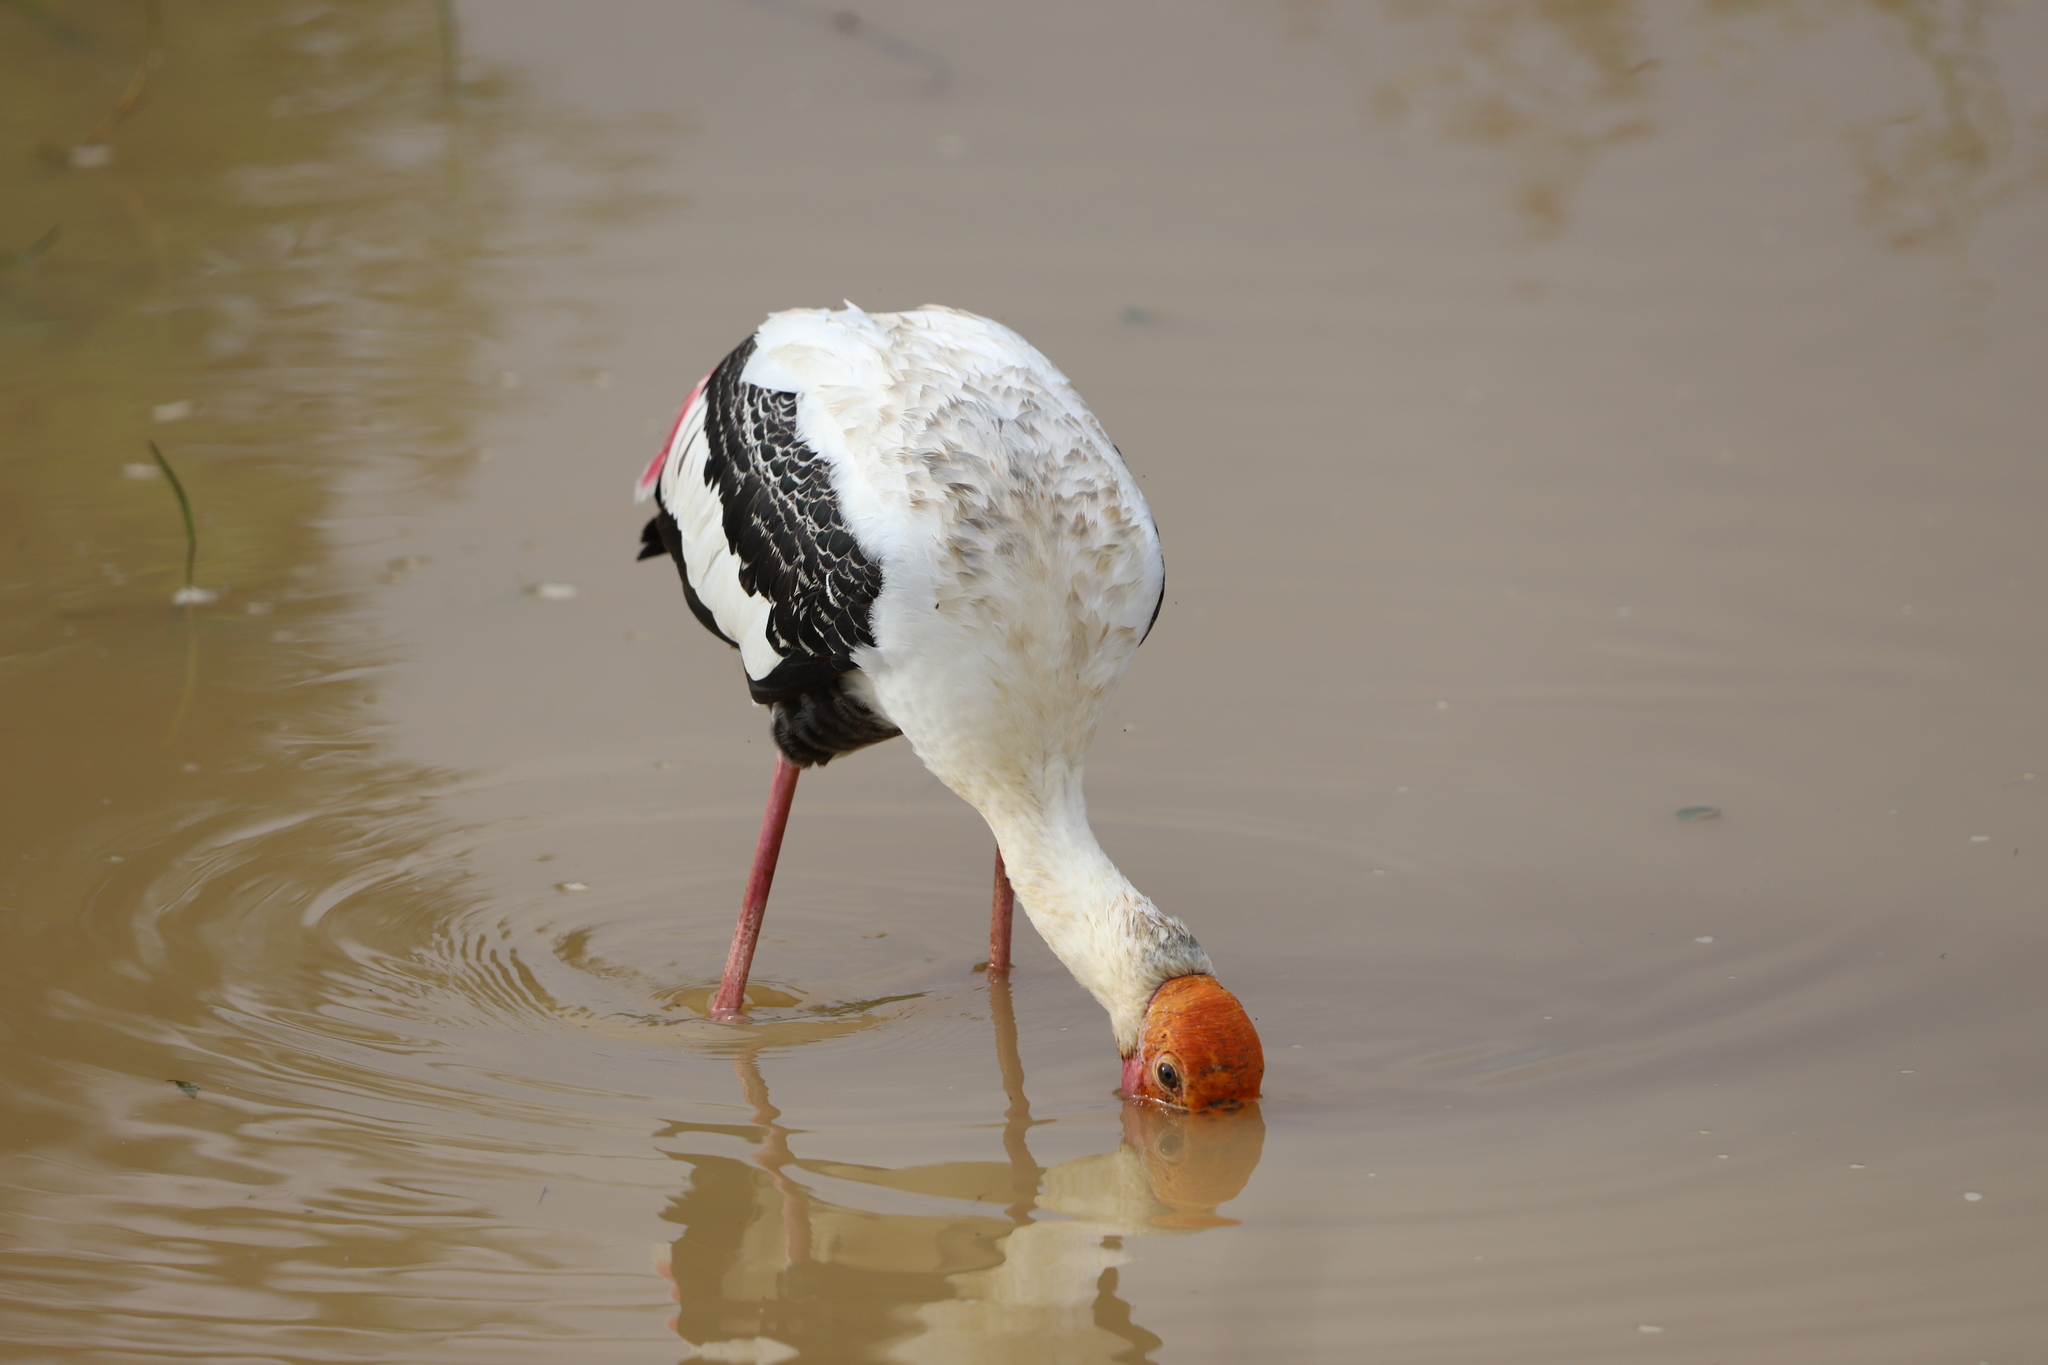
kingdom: Animalia
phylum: Chordata
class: Aves
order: Ciconiiformes
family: Ciconiidae
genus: Mycteria
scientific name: Mycteria leucocephala
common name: Painted stork
